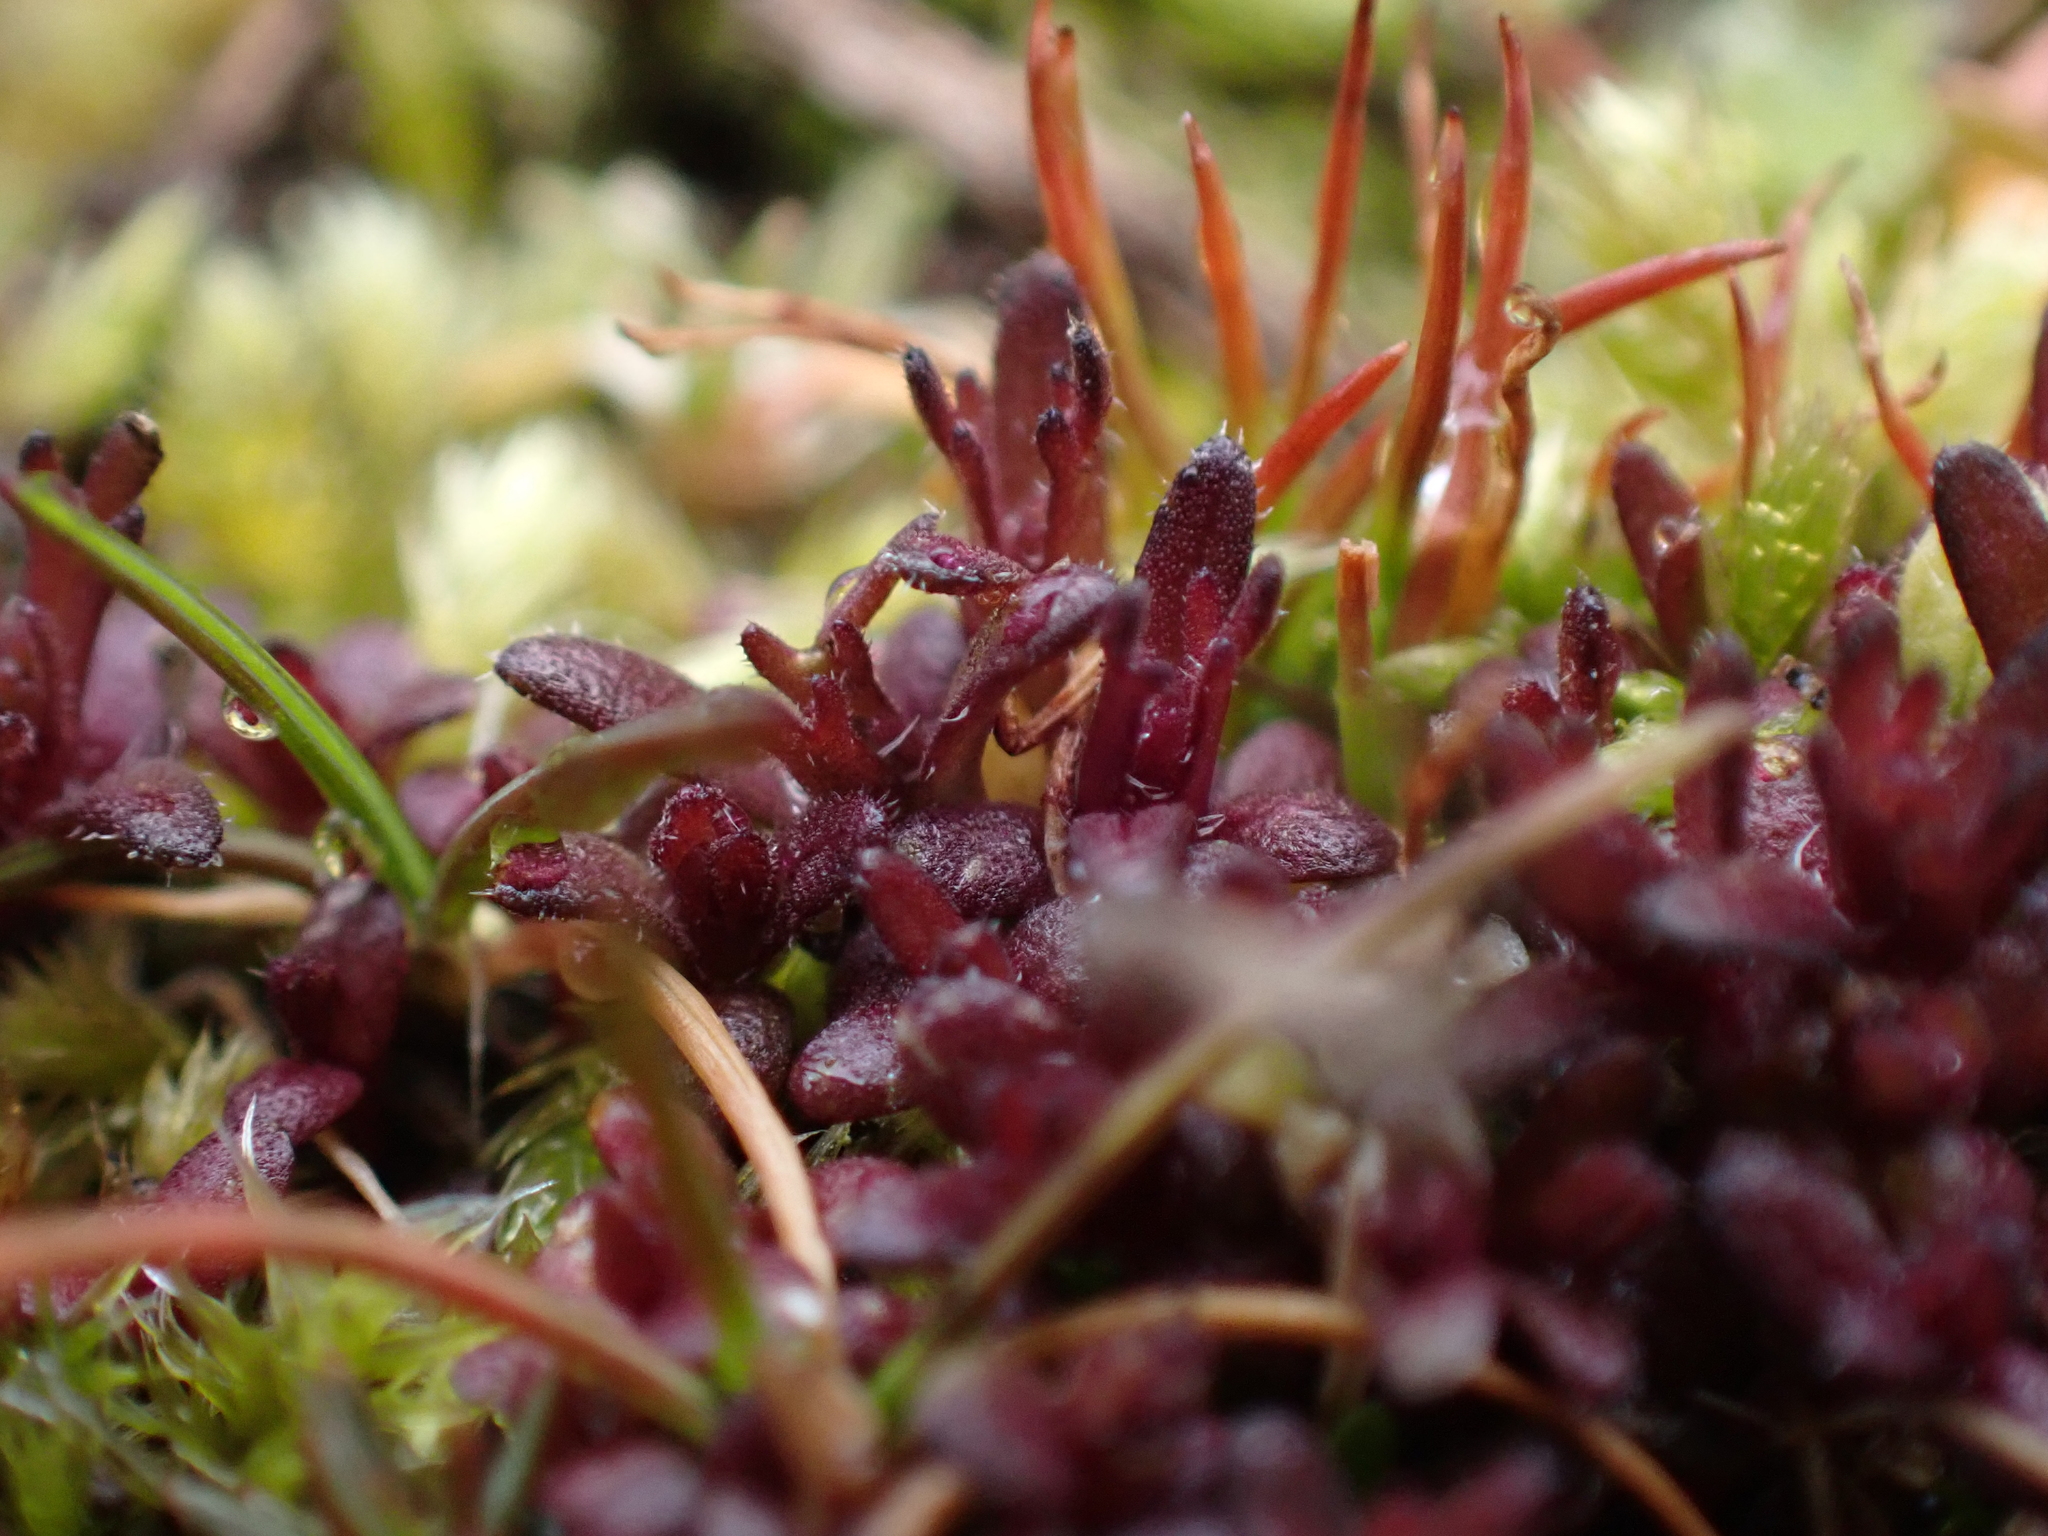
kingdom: Plantae
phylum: Tracheophyta
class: Magnoliopsida
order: Lamiales
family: Orobanchaceae
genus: Triphysaria
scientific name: Triphysaria pusilla
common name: Dwarf false owl-clover
